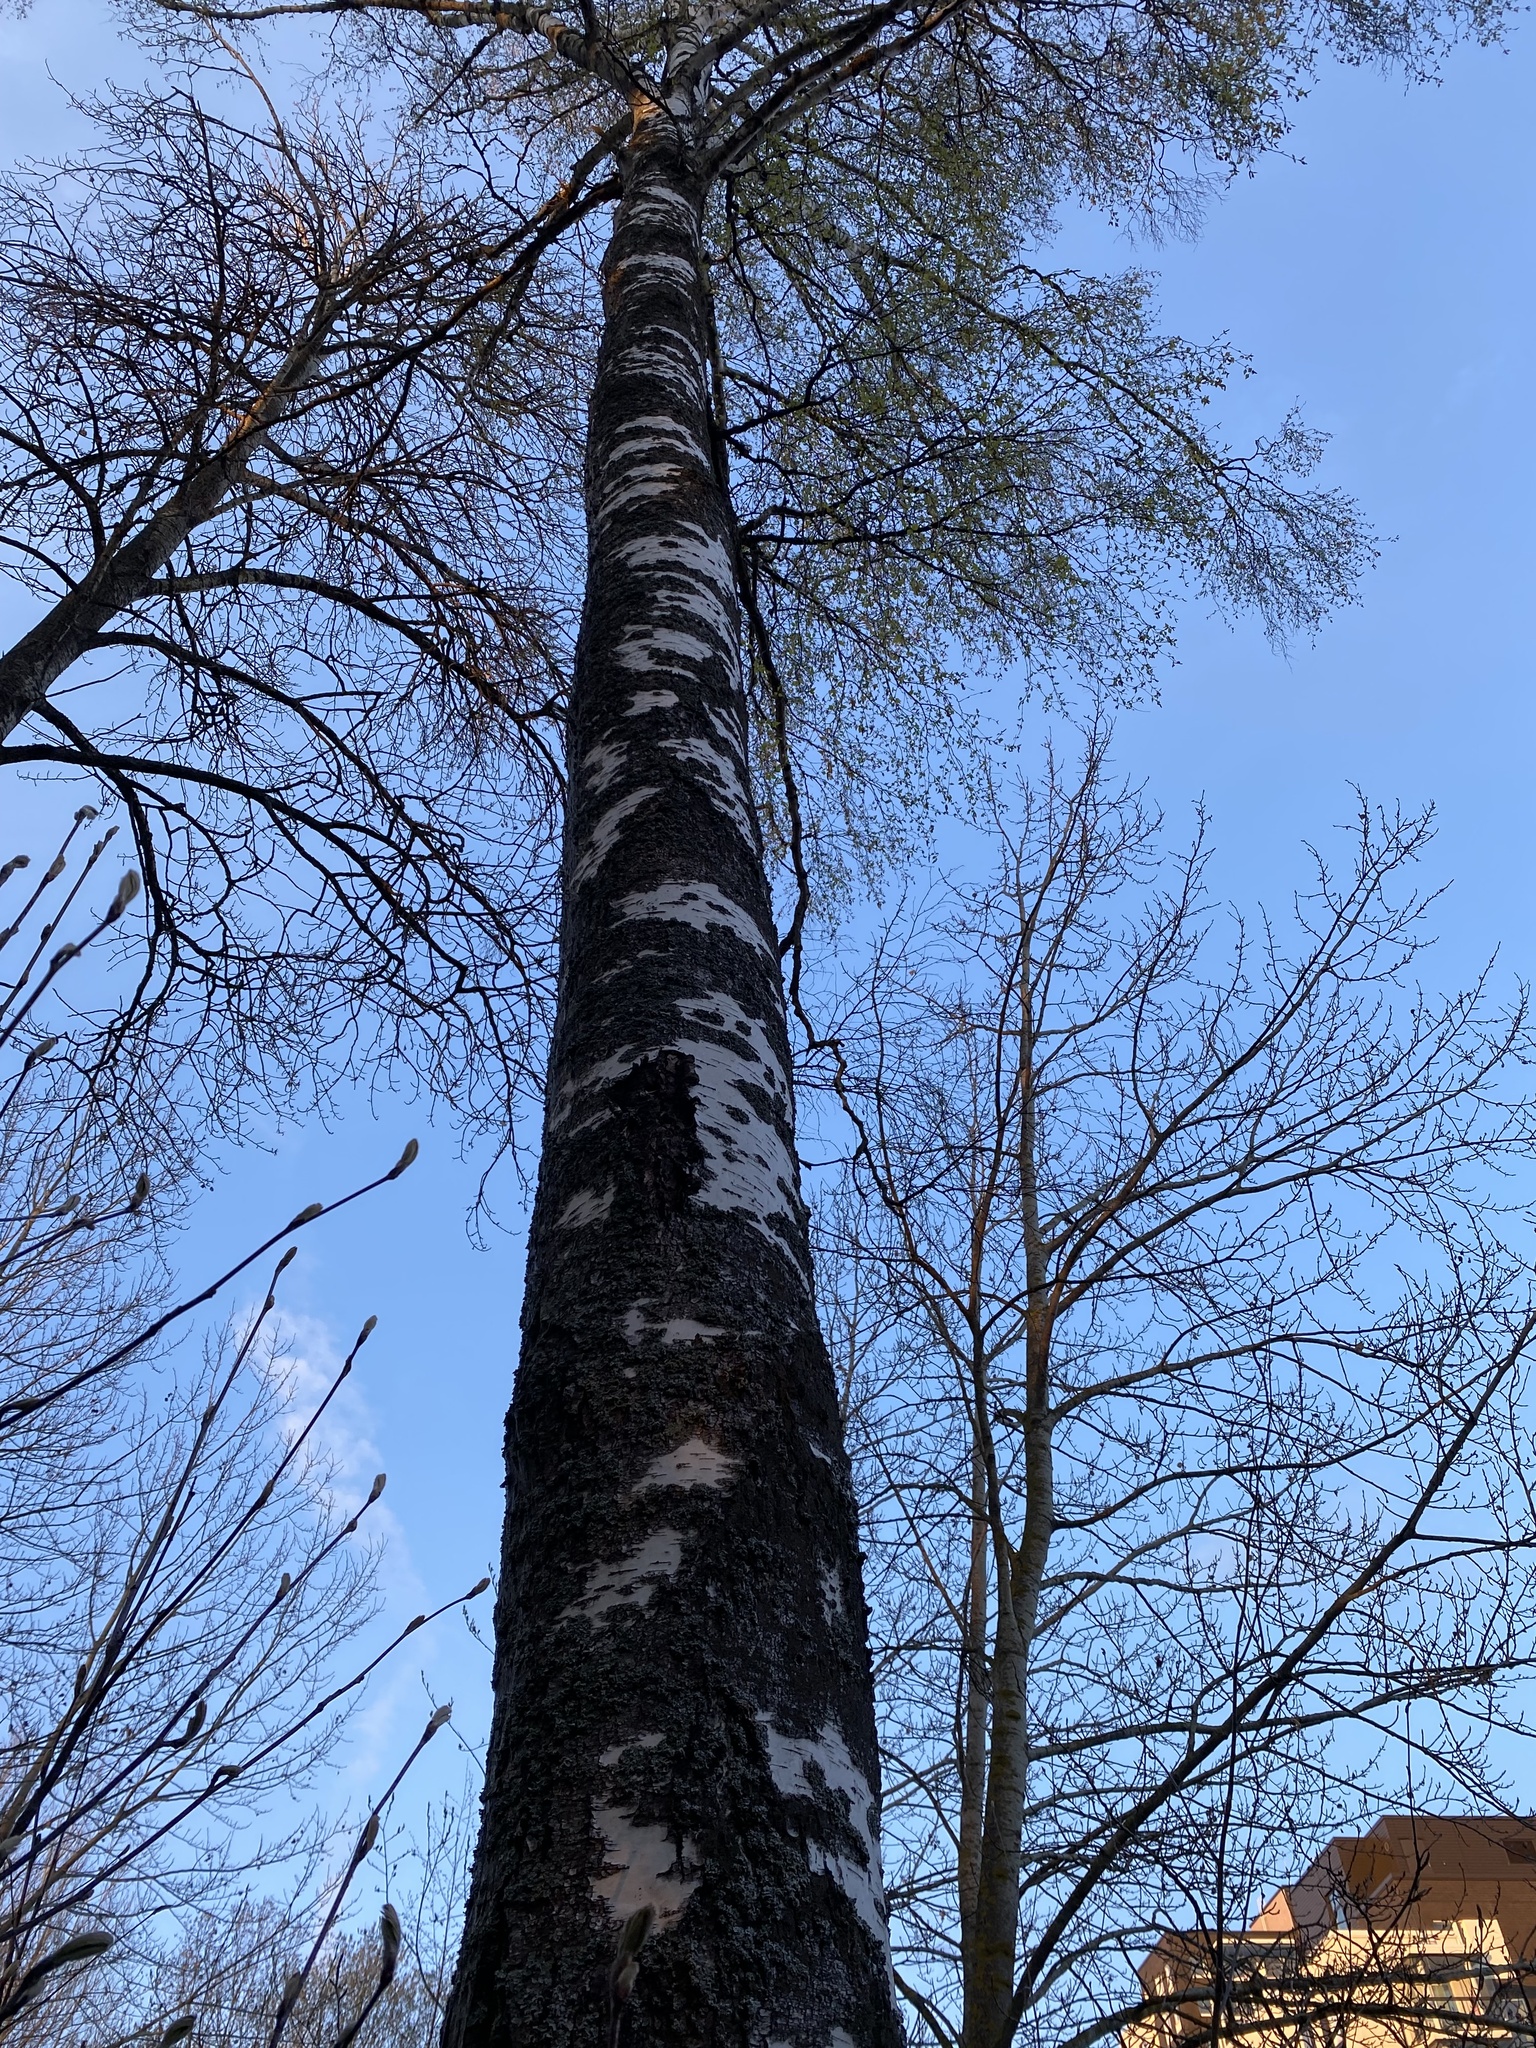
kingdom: Bacteria
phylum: Proteobacteria
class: Alphaproteobacteria
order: Rhizobiales
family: Rhizobiaceae
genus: Rhizobium
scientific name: Rhizobium Agrobacterium radiobacter
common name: Bacterial crown gall
